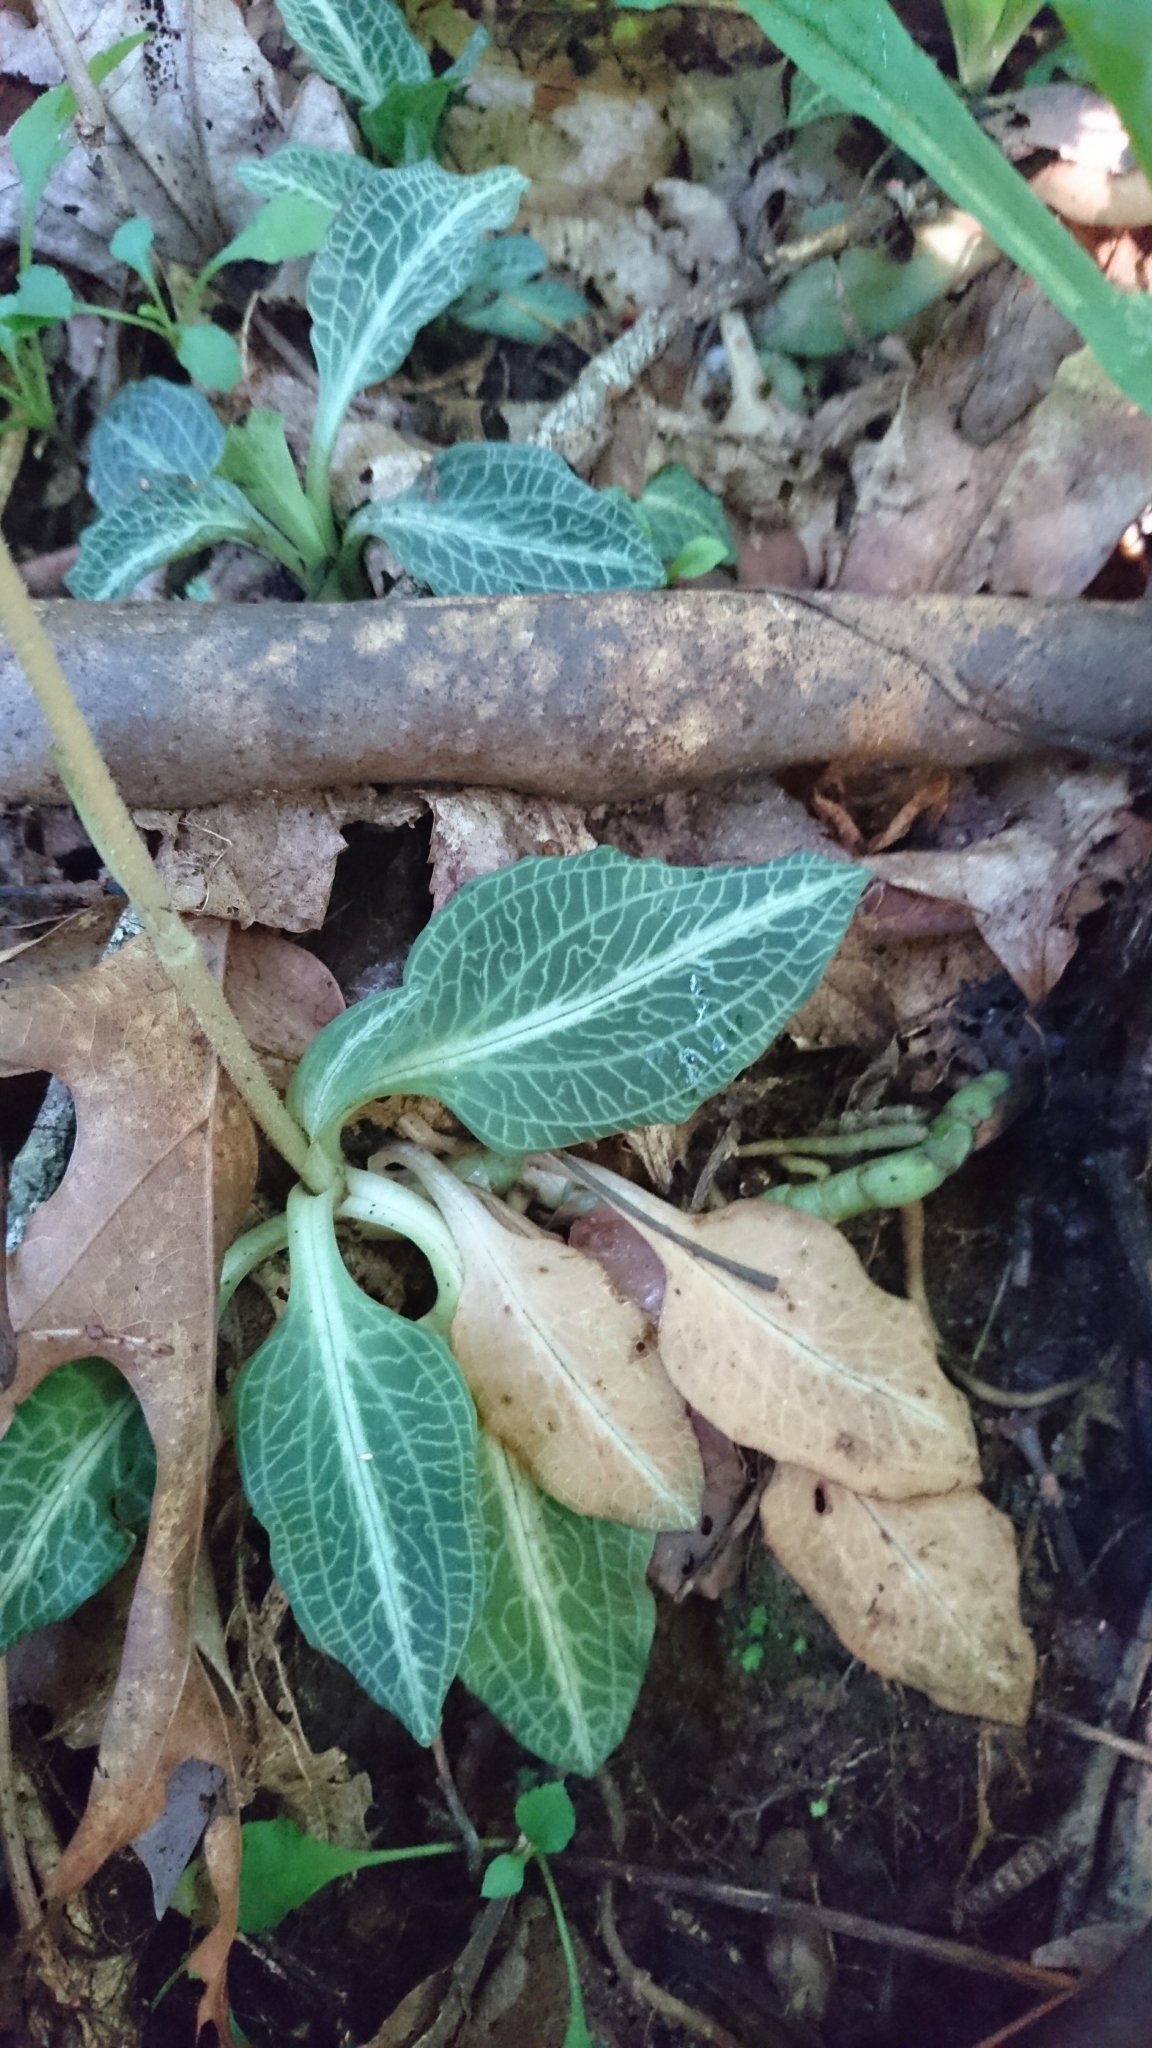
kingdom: Plantae
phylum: Tracheophyta
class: Liliopsida
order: Asparagales
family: Orchidaceae
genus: Goodyera
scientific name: Goodyera pubescens
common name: Downy rattlesnake-plantain
